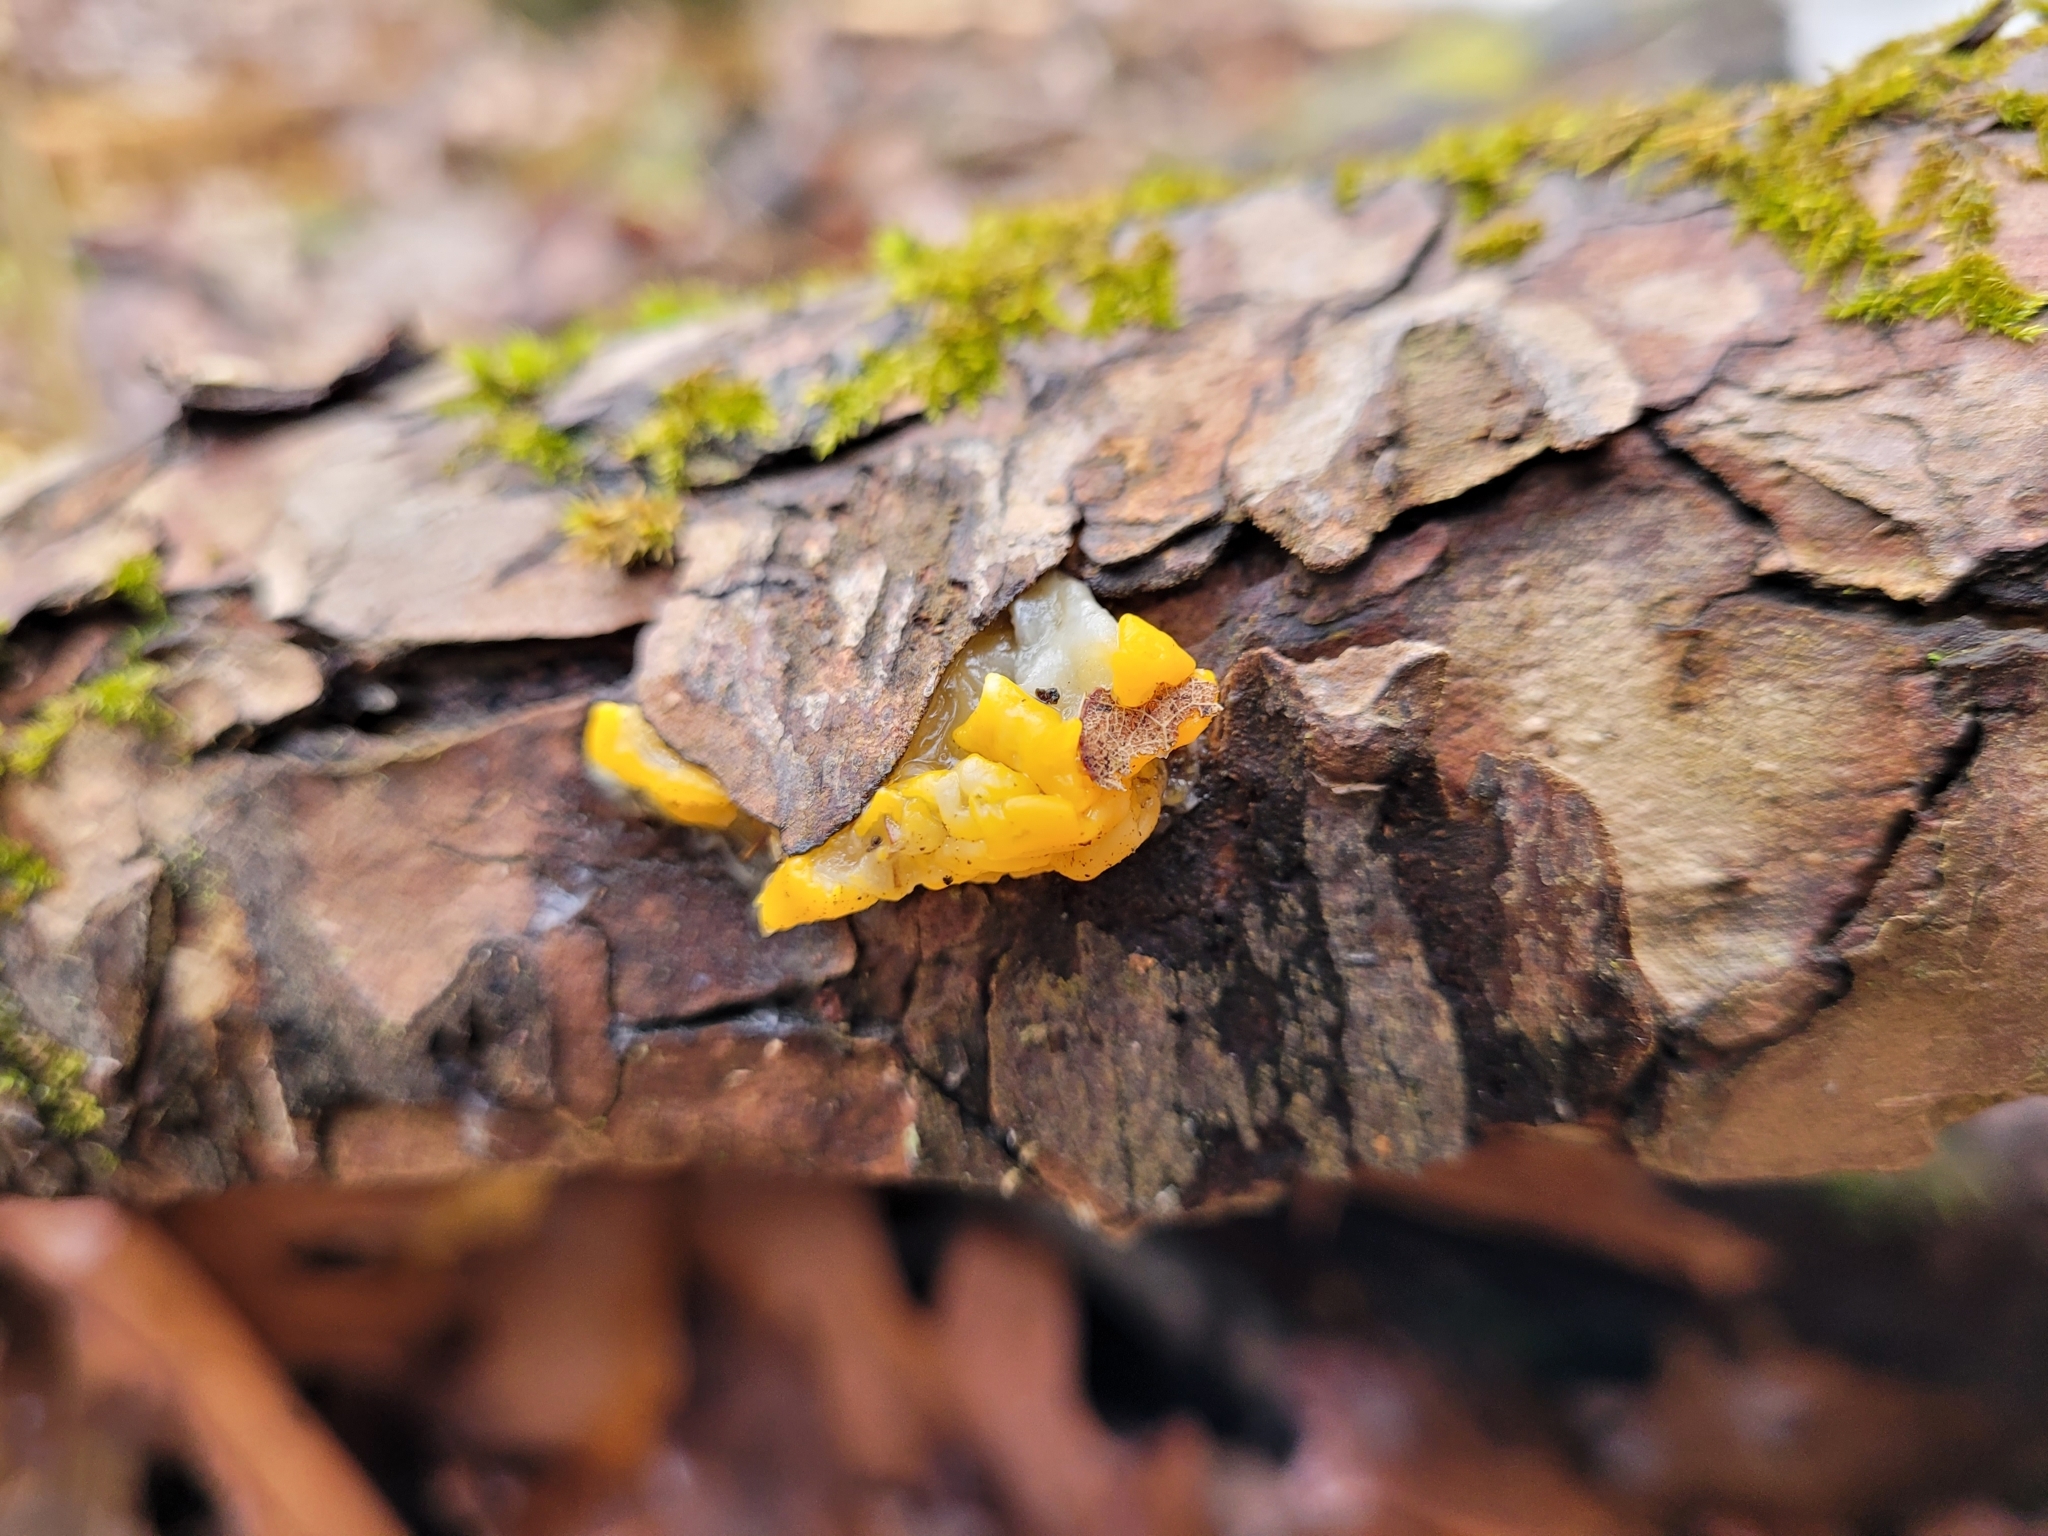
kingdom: Fungi
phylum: Basidiomycota
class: Dacrymycetes
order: Dacrymycetales
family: Dacrymycetaceae
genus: Dacrymyces
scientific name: Dacrymyces chrysospermus
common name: Orange jelly spot
